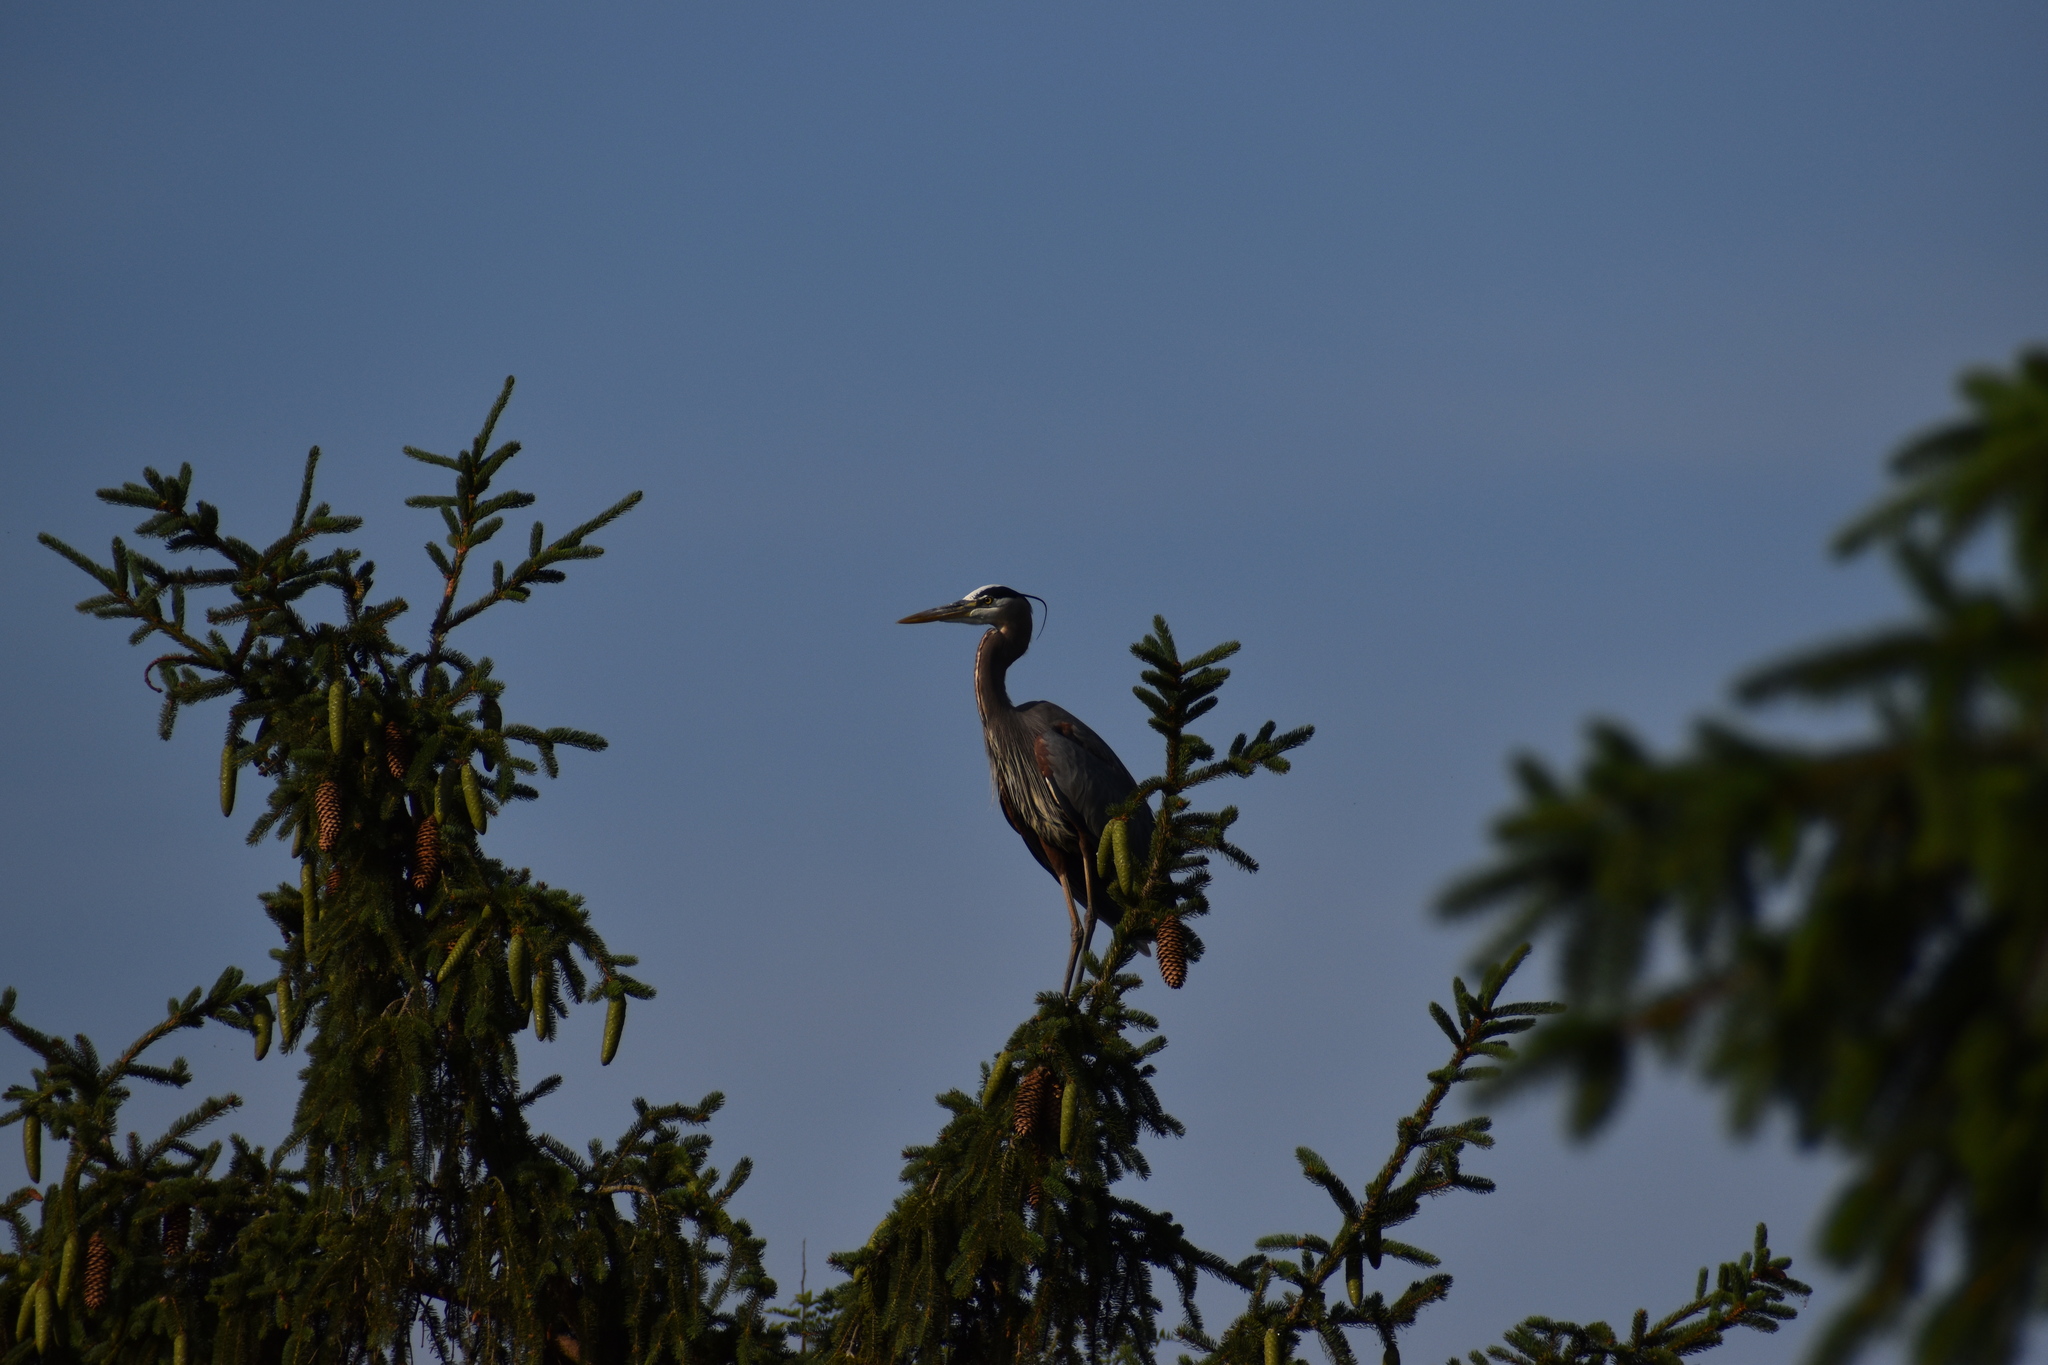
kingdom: Animalia
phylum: Chordata
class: Aves
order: Pelecaniformes
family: Ardeidae
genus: Ardea
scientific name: Ardea herodias
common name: Great blue heron
